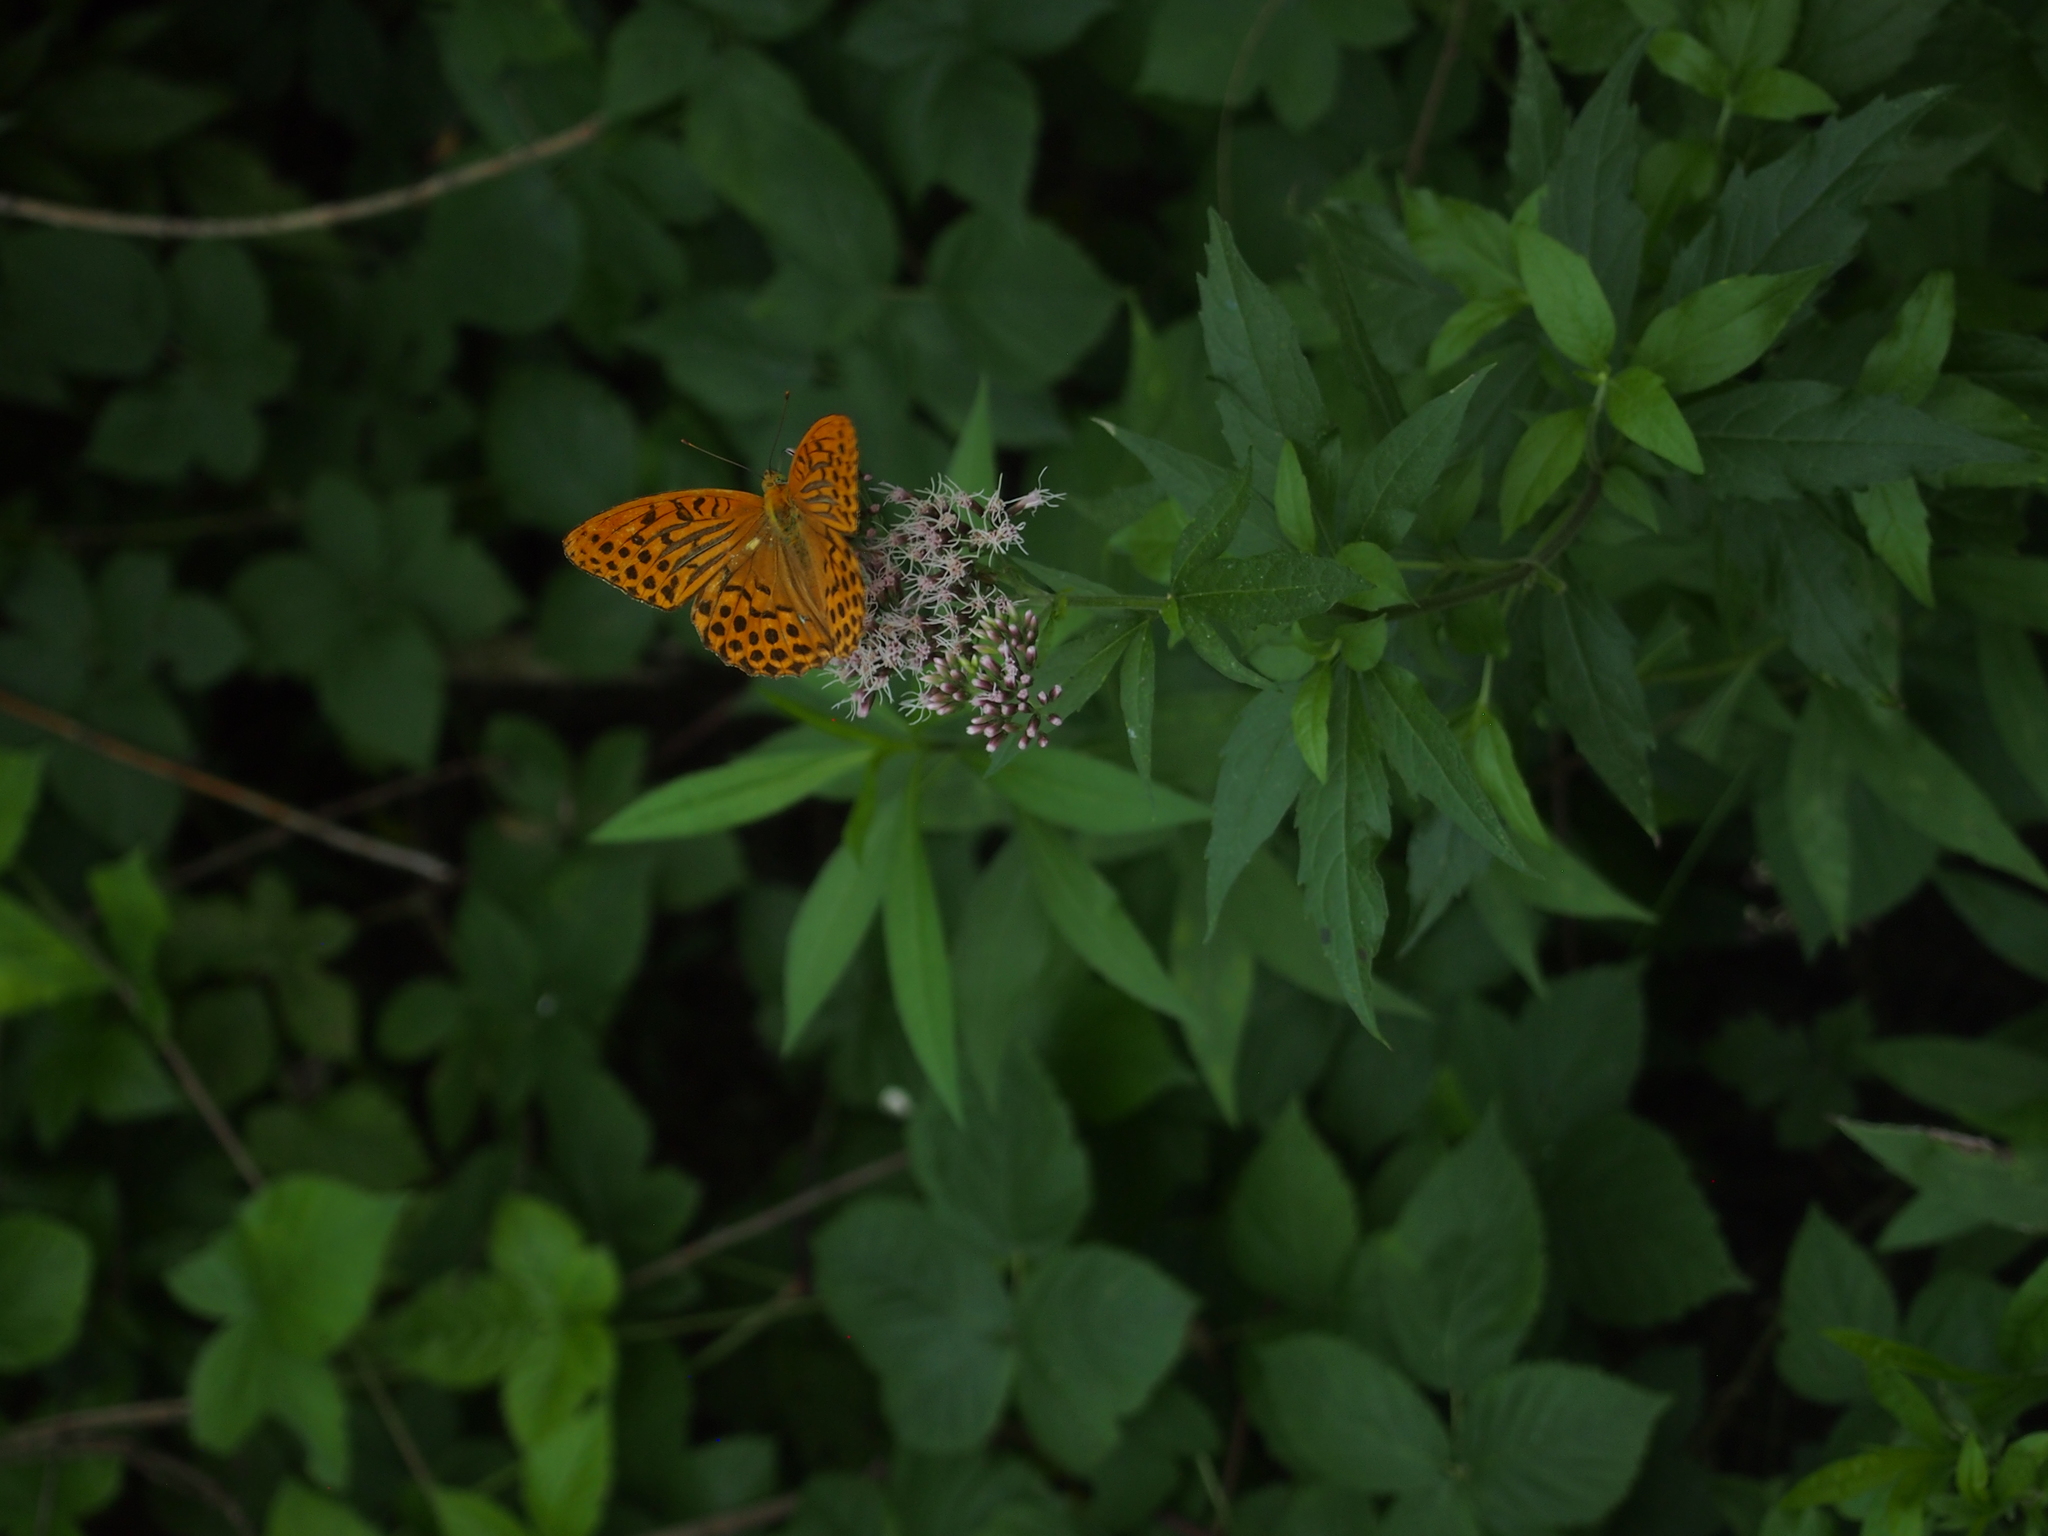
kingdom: Animalia
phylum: Arthropoda
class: Insecta
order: Lepidoptera
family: Nymphalidae
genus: Argynnis
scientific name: Argynnis paphia
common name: Silver-washed fritillary
